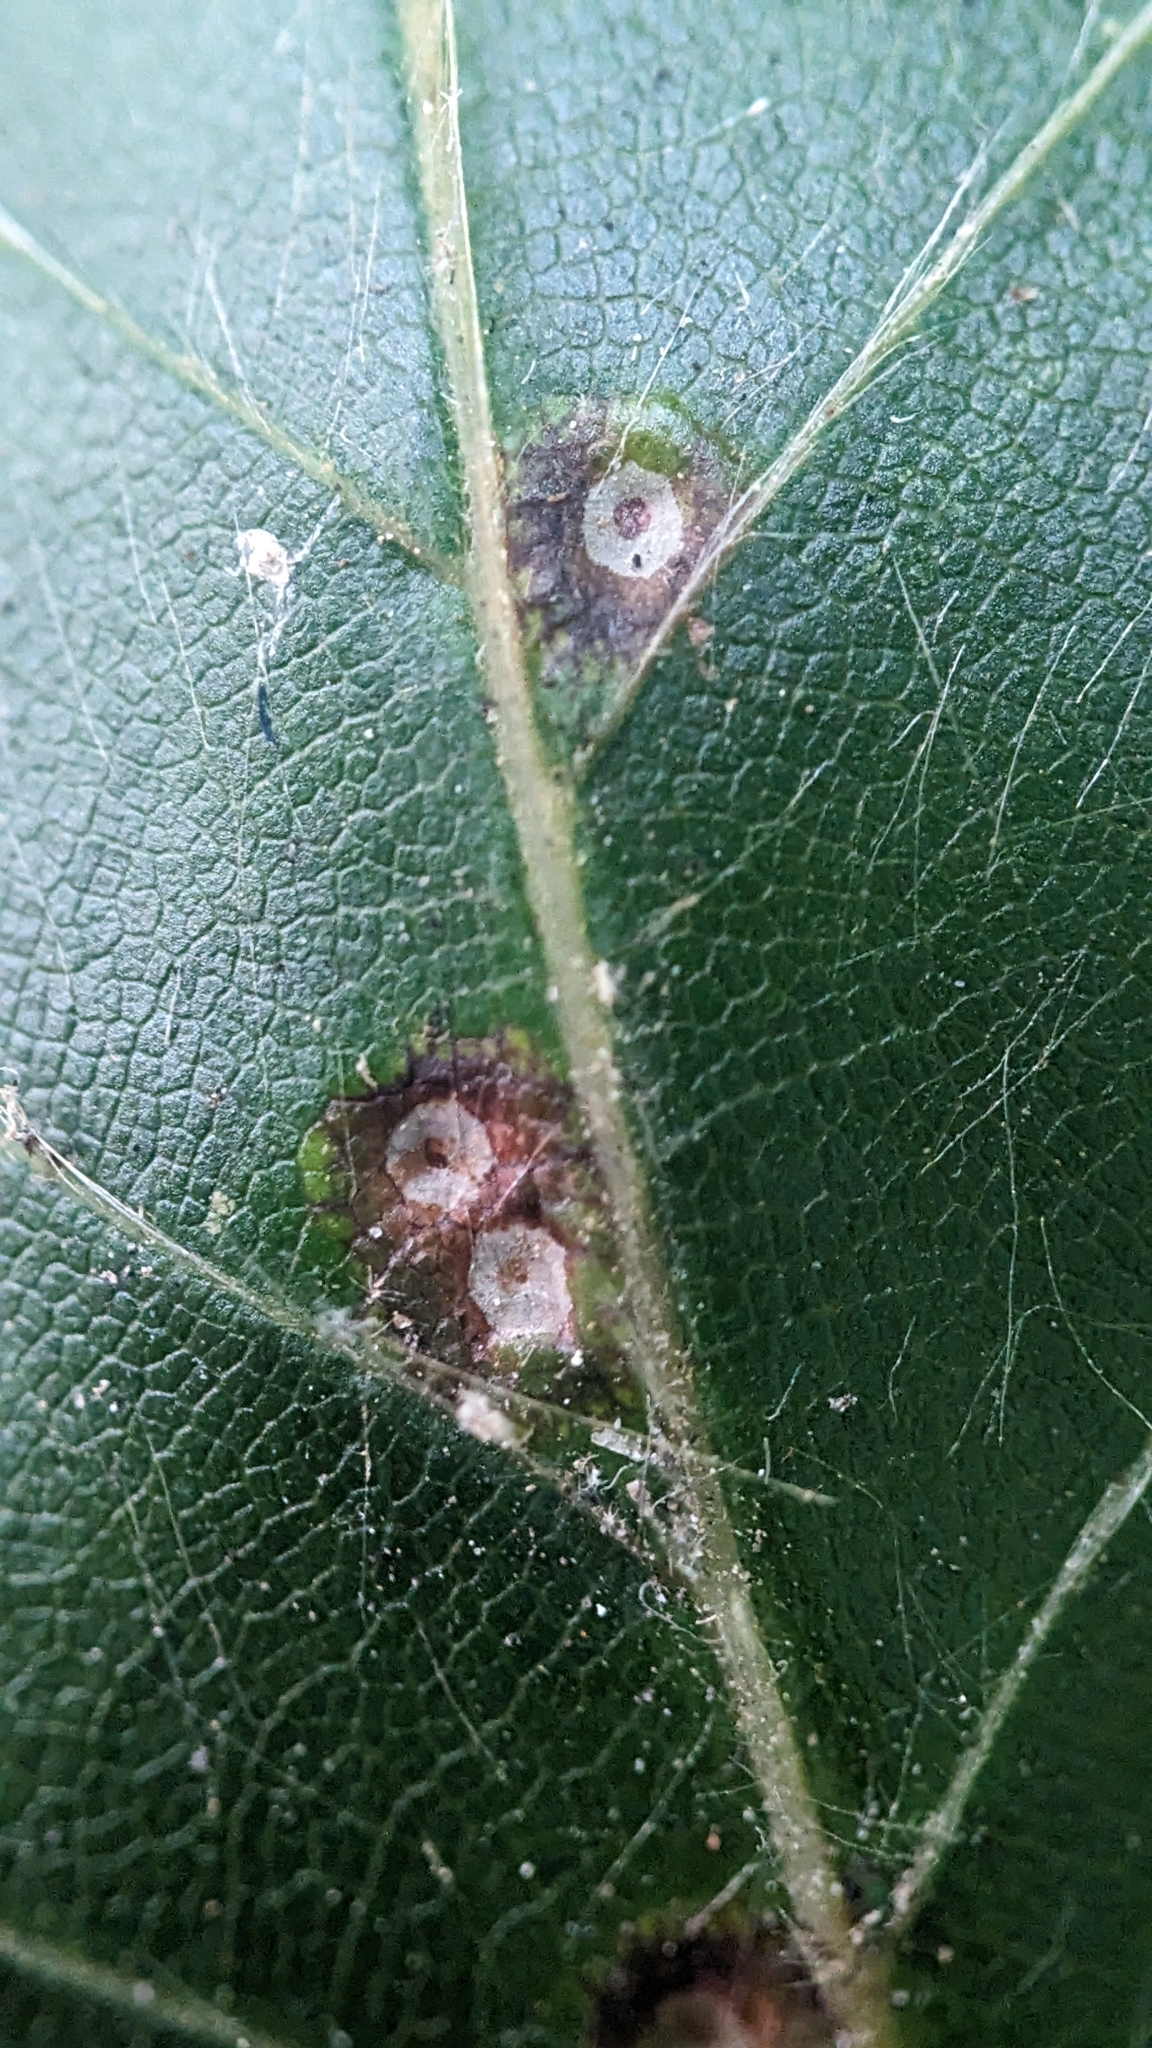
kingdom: Animalia
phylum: Arthropoda
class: Insecta
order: Diptera
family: Cecidomyiidae
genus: Hartigiola
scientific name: Hartigiola annulipes
